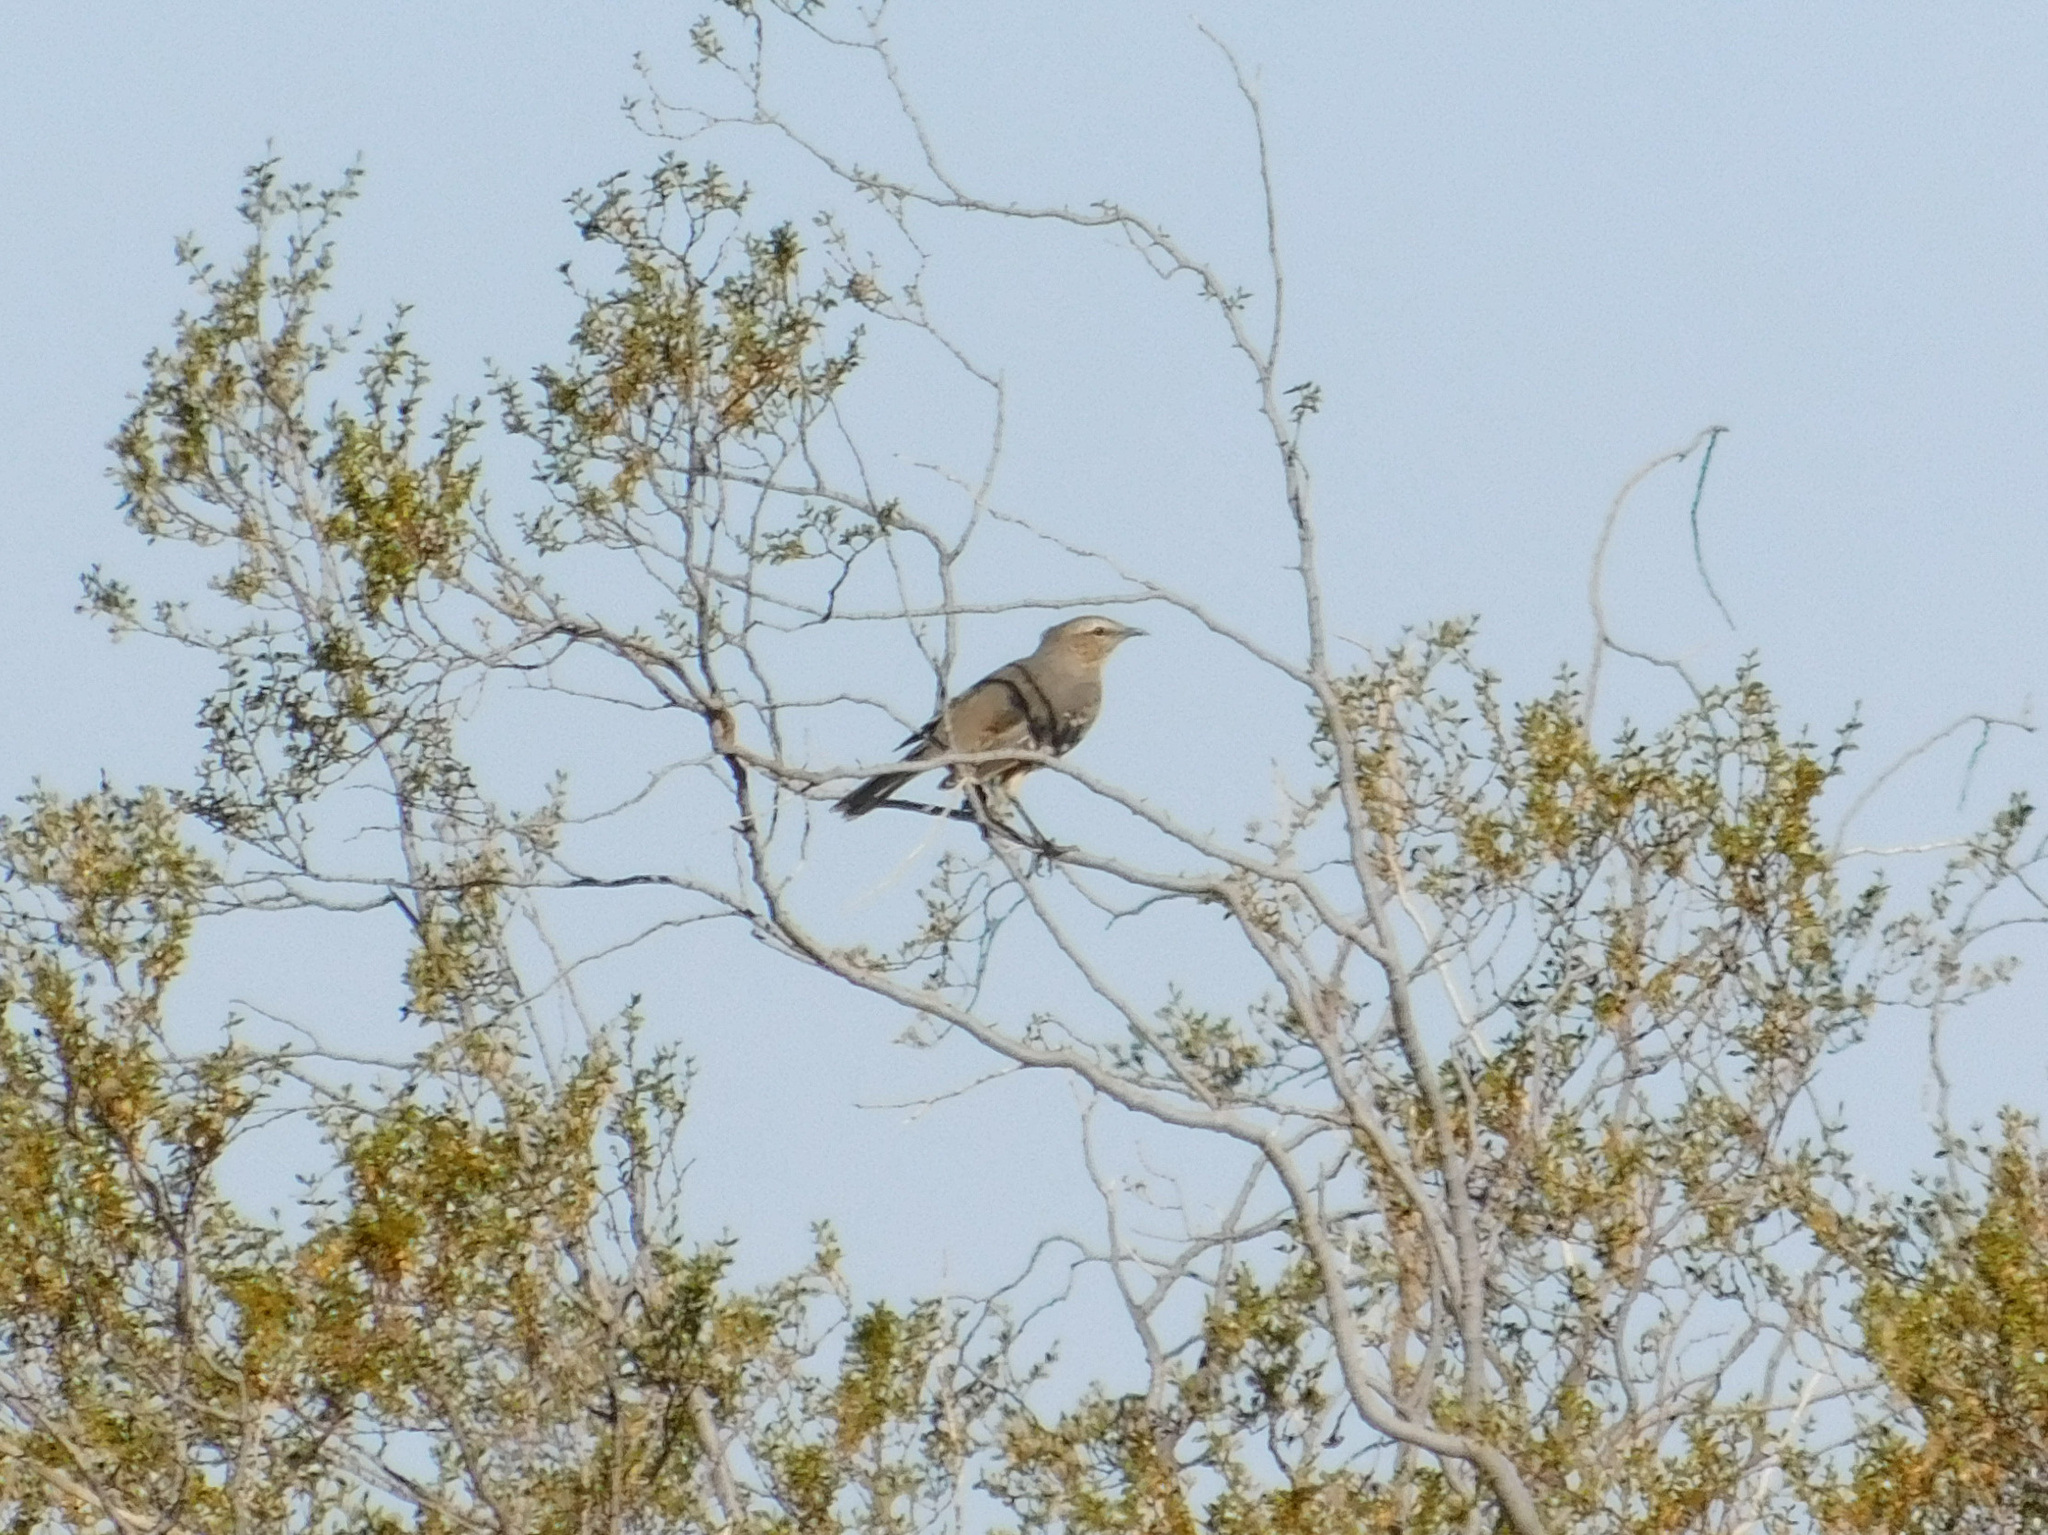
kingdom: Animalia
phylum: Chordata
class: Aves
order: Passeriformes
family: Mimidae
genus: Mimus
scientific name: Mimus patagonicus
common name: Patagonian mockingbird
